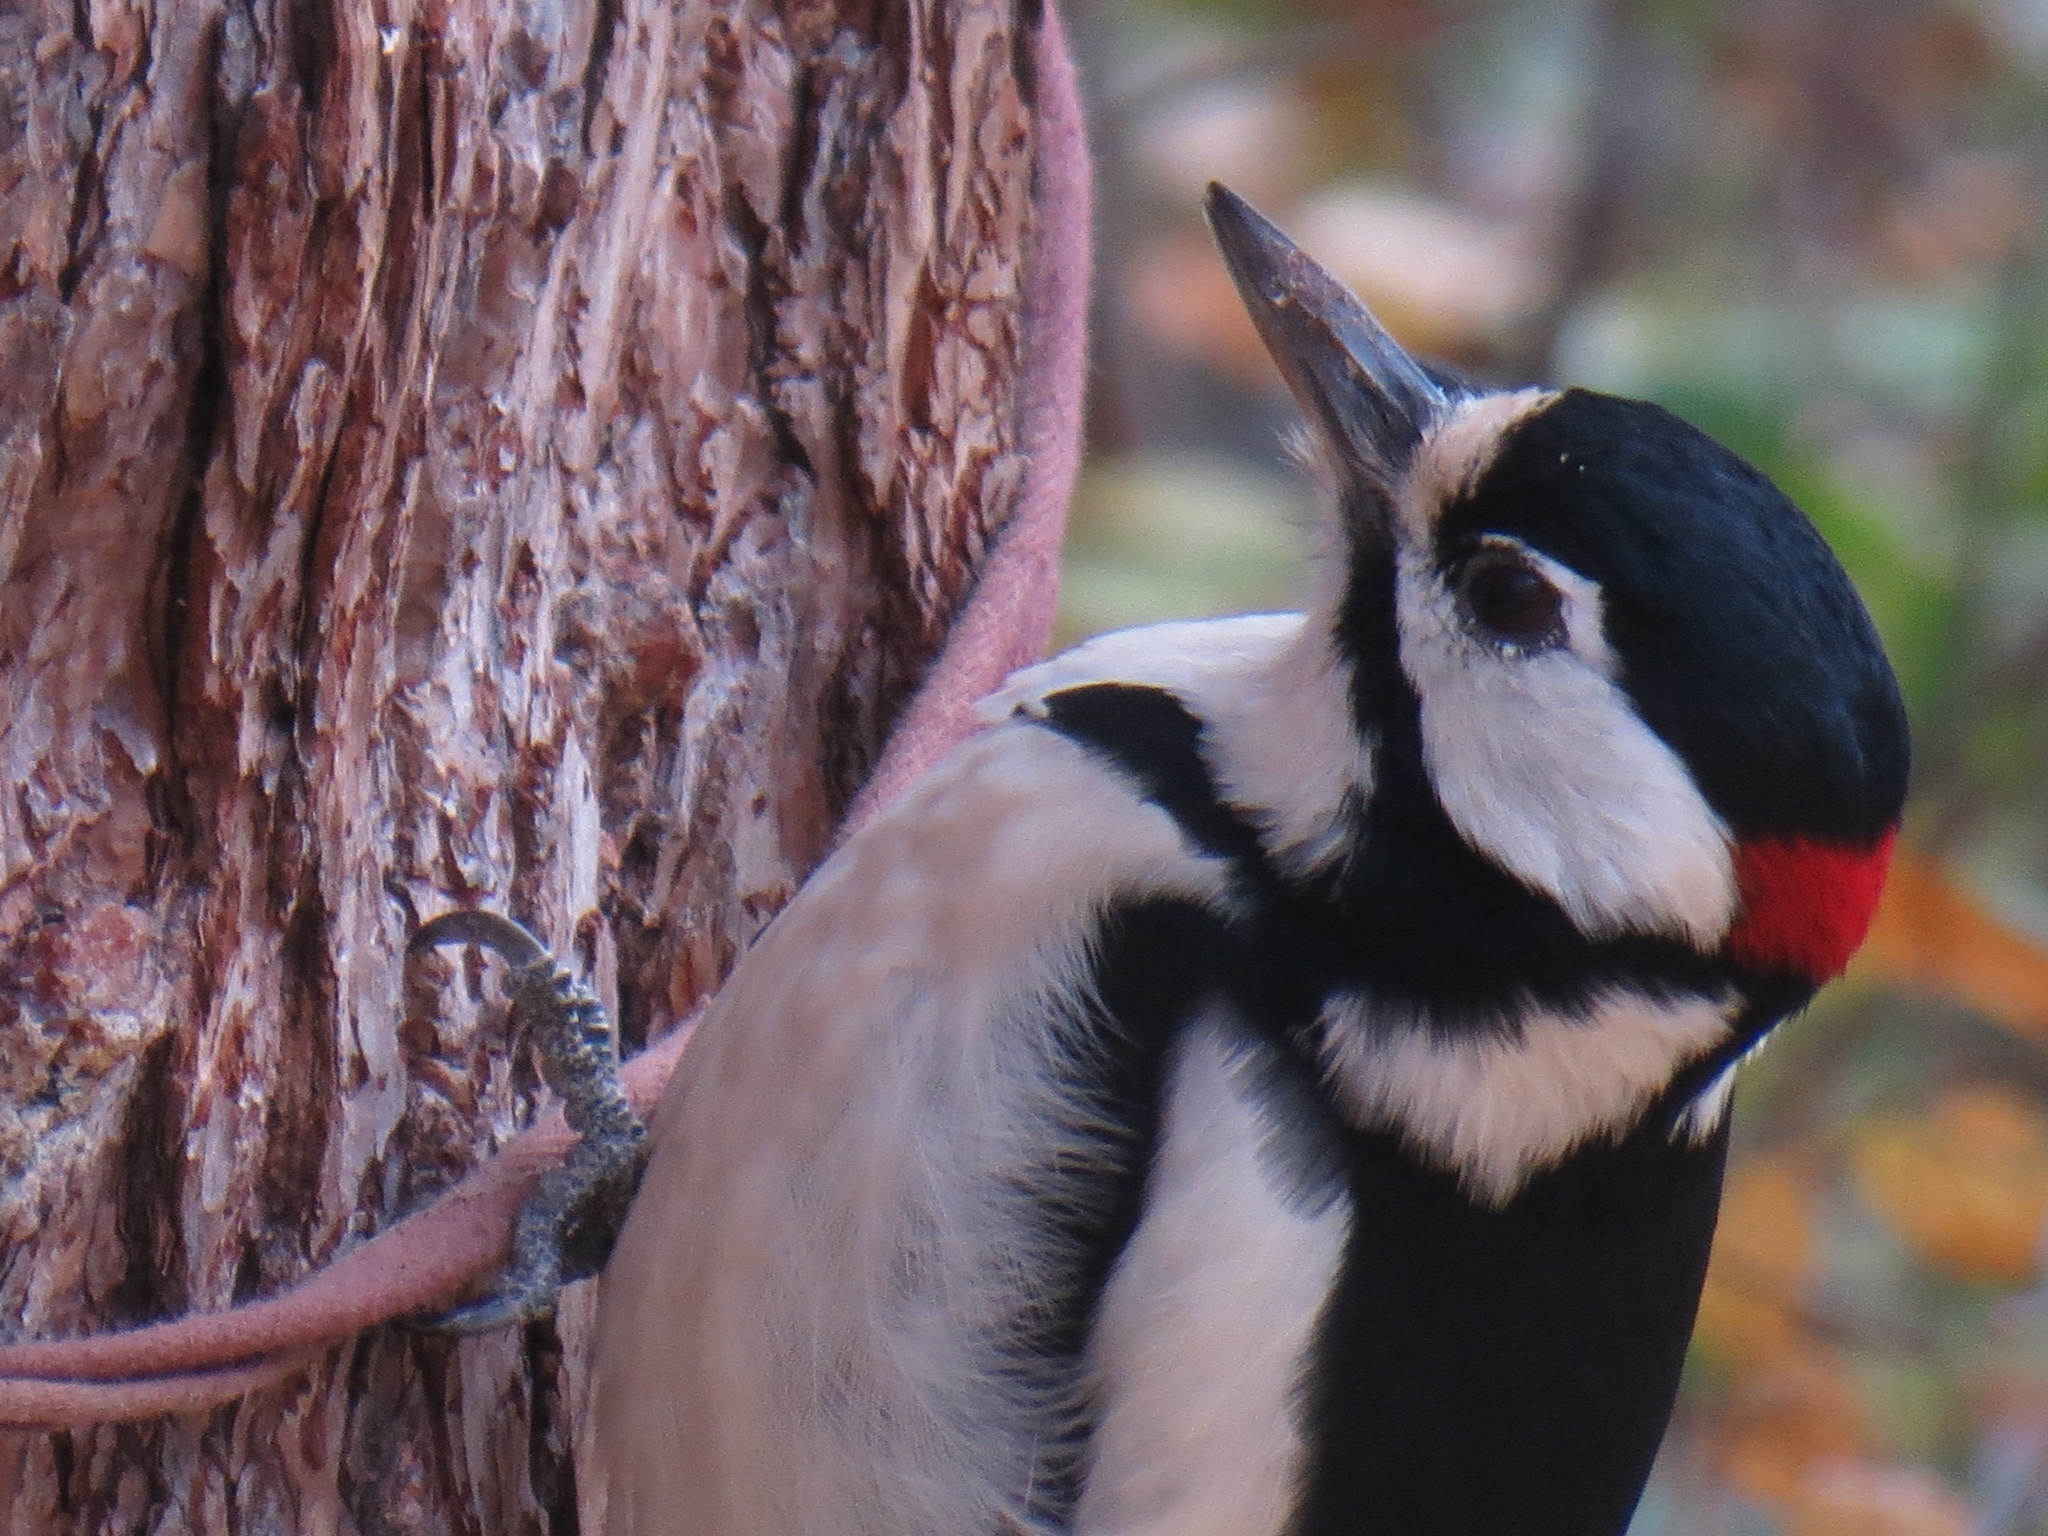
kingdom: Animalia
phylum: Chordata
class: Aves
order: Piciformes
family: Picidae
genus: Dendrocopos
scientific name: Dendrocopos major
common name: Great spotted woodpecker
